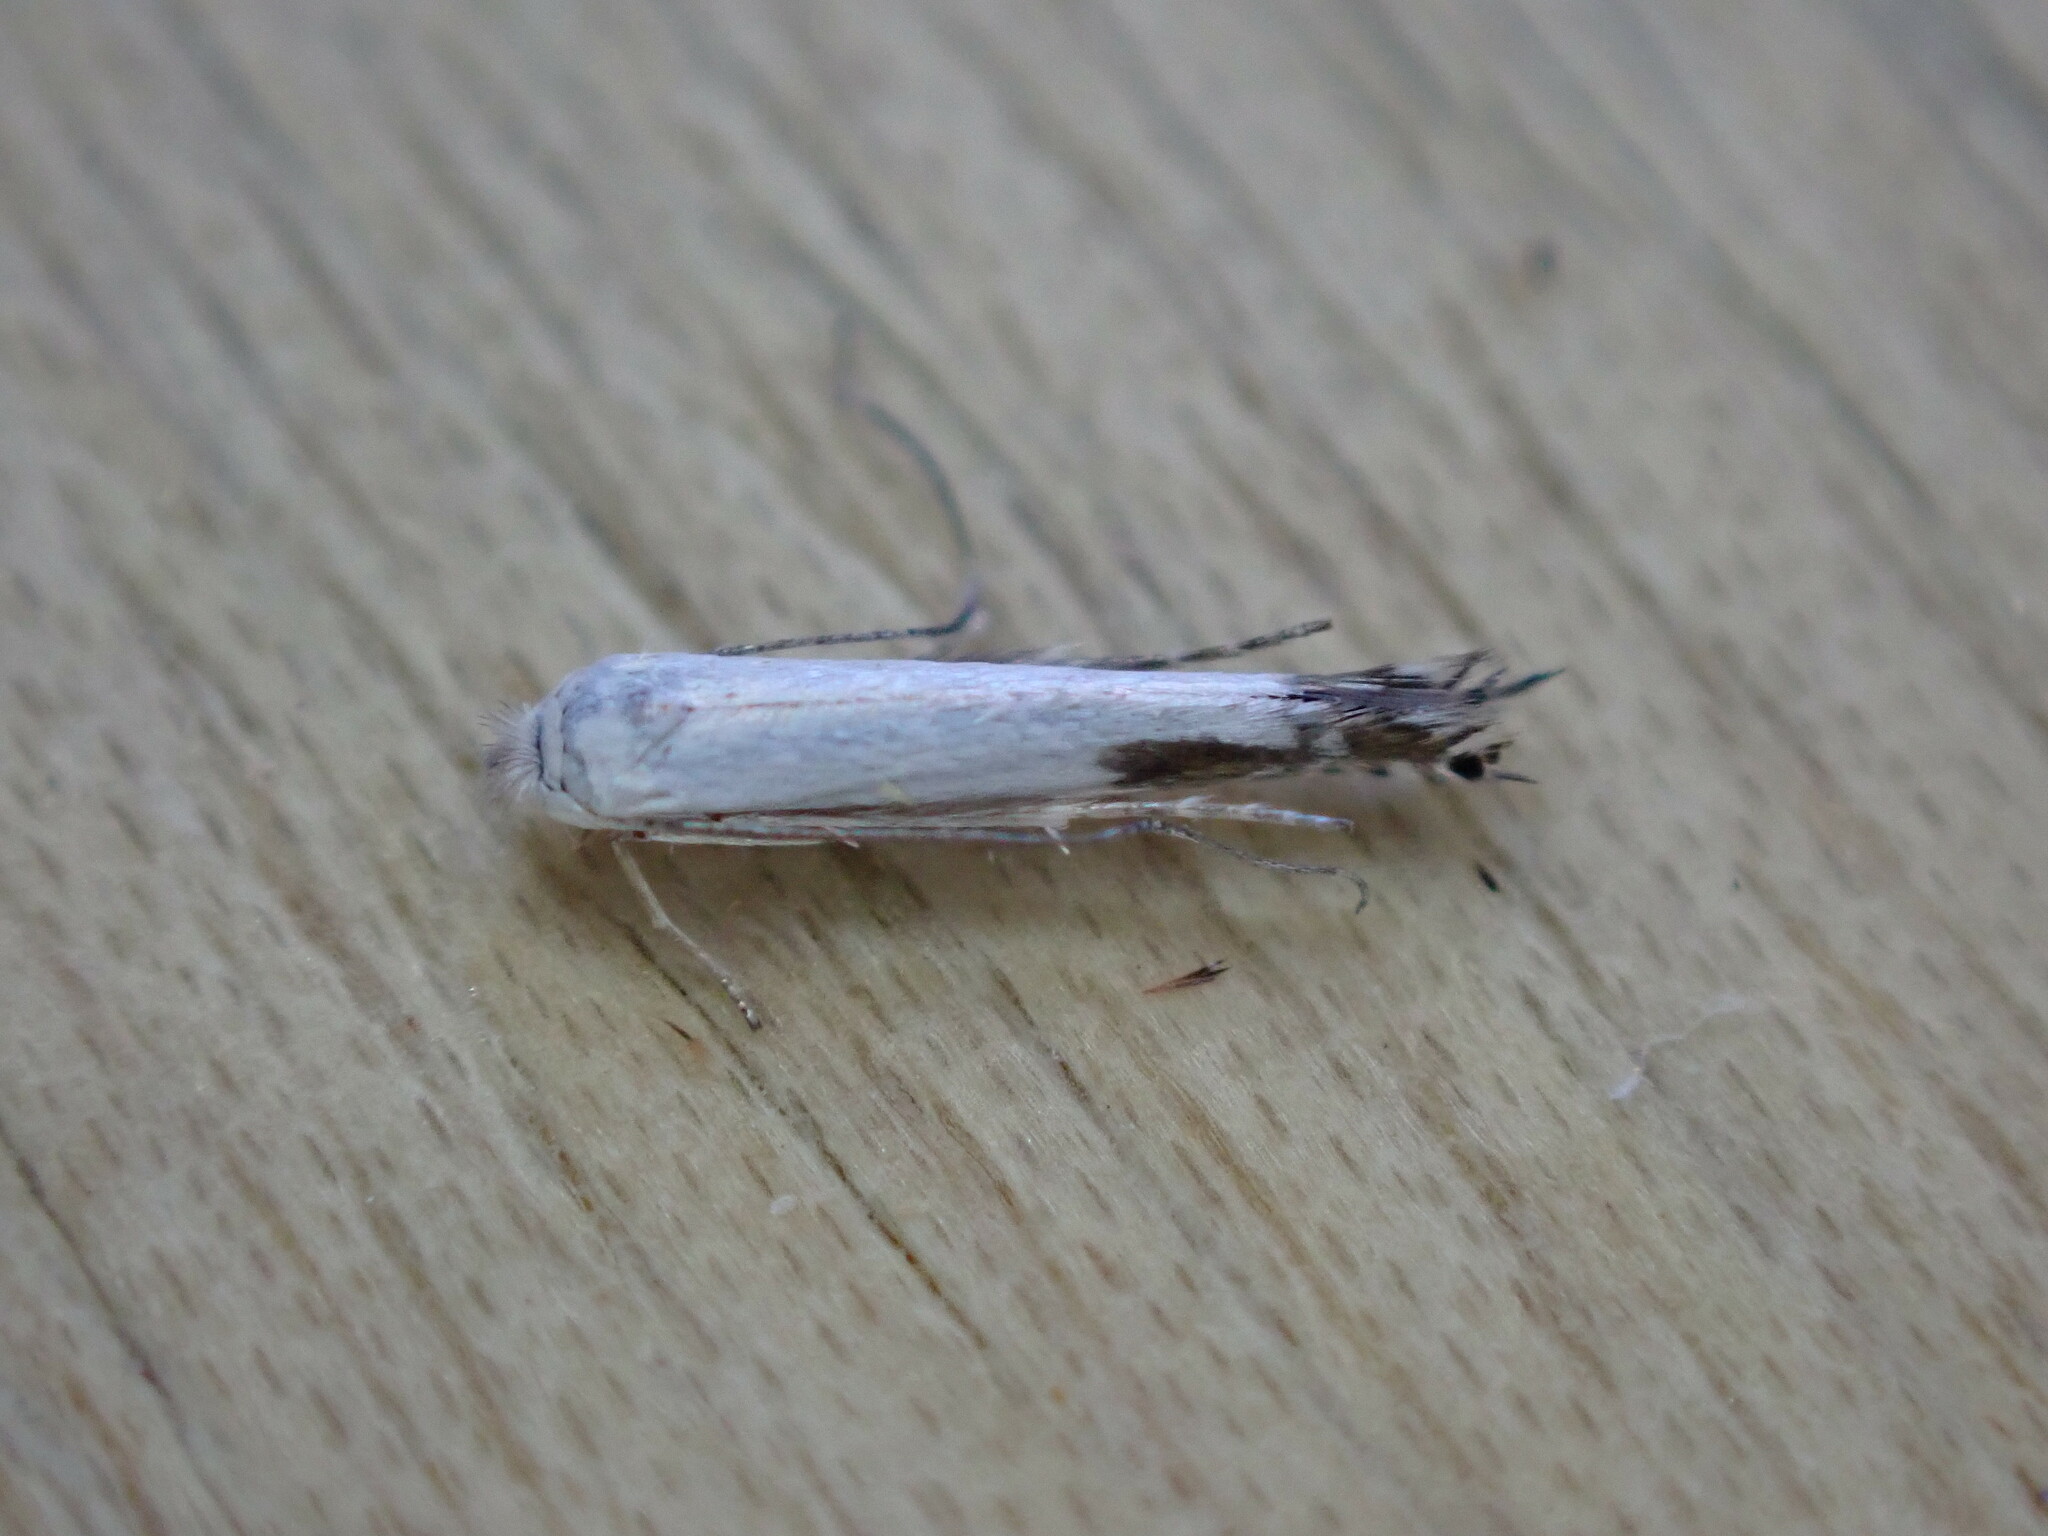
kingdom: Animalia
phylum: Arthropoda
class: Insecta
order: Lepidoptera
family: Lyonetiidae
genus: Lyonetia
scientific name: Lyonetia clerkella
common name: Apple leaf miner
